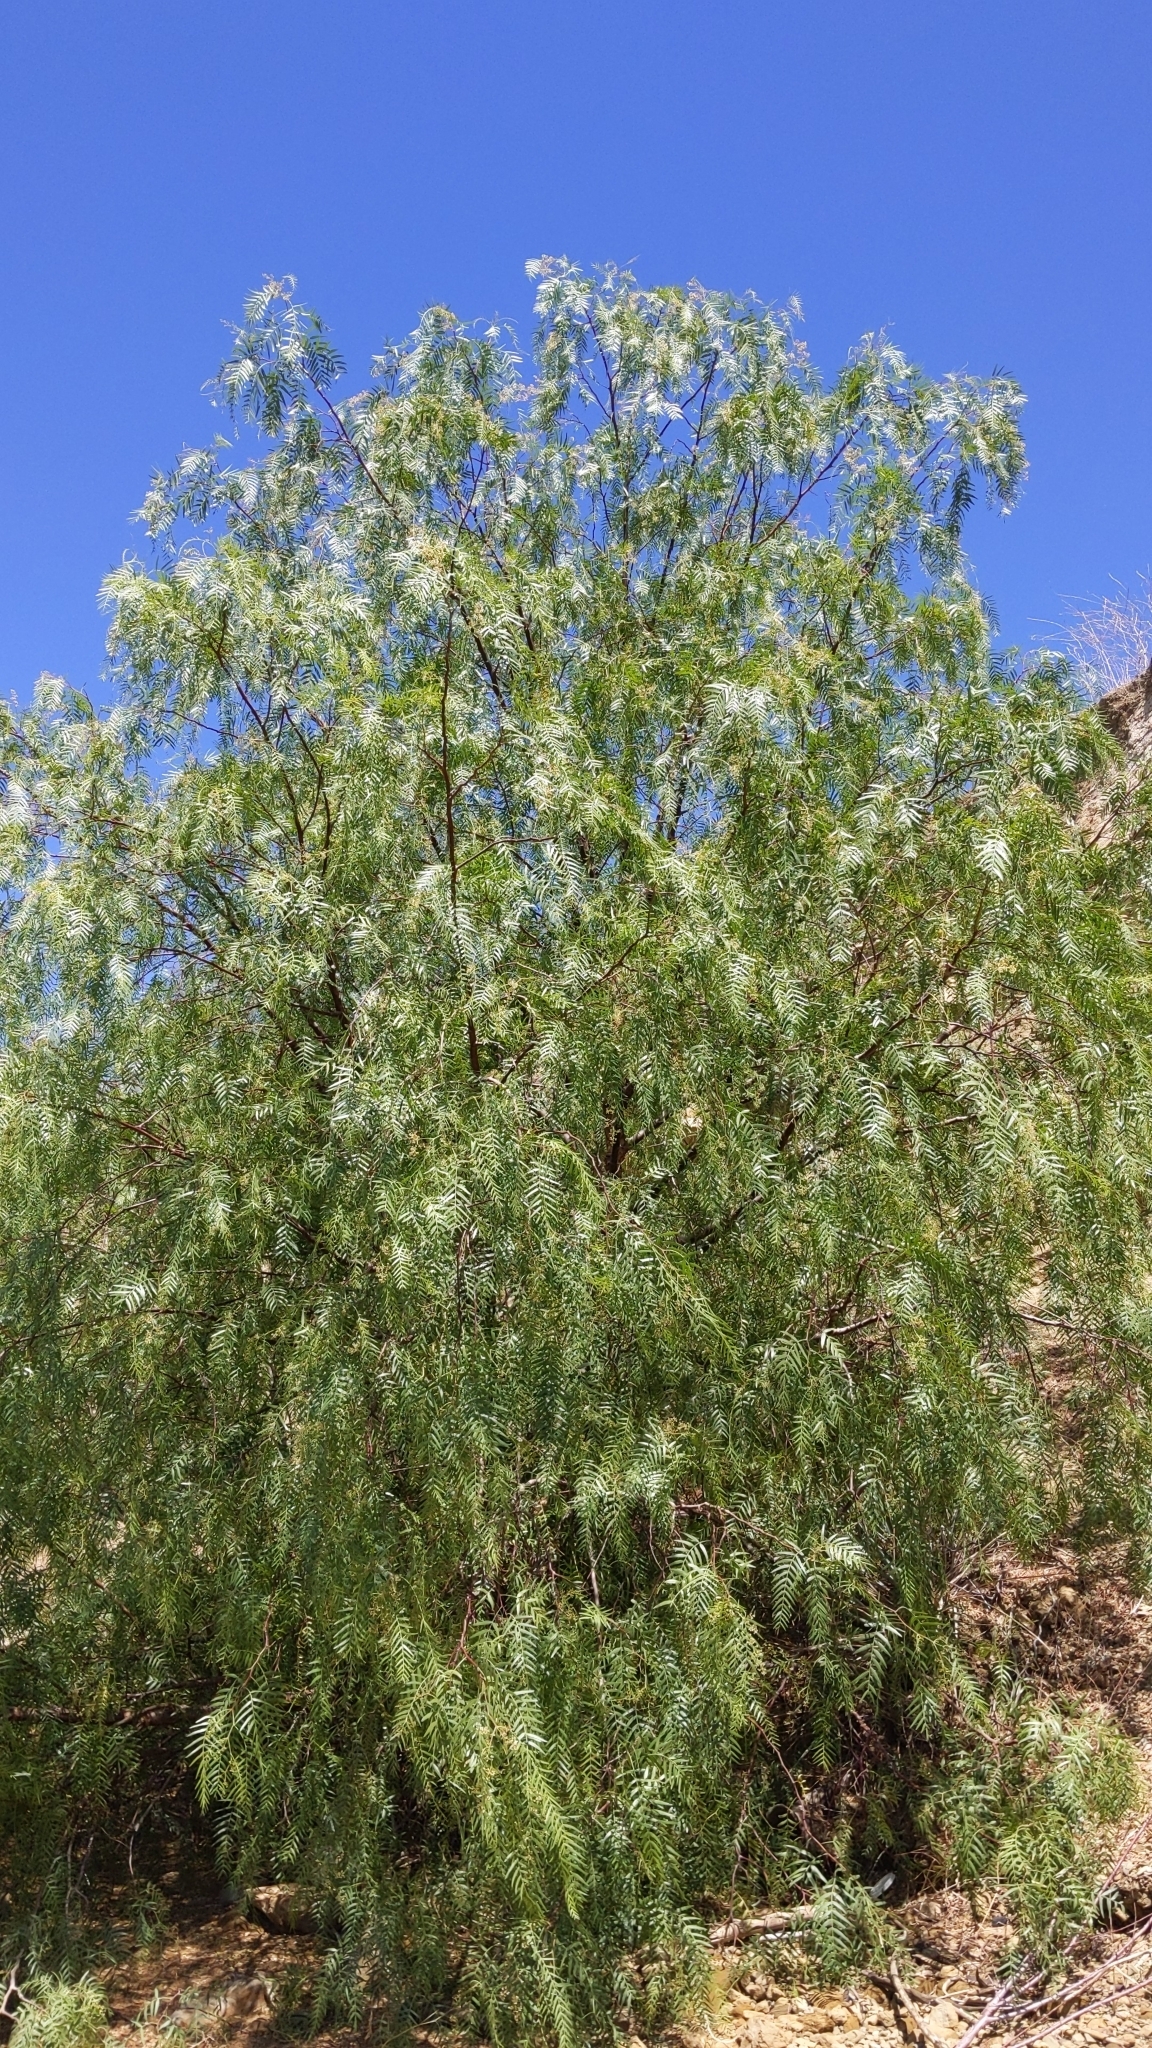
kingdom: Plantae
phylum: Tracheophyta
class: Magnoliopsida
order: Sapindales
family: Anacardiaceae
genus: Schinus
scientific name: Schinus molle
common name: Peruvian peppertree
